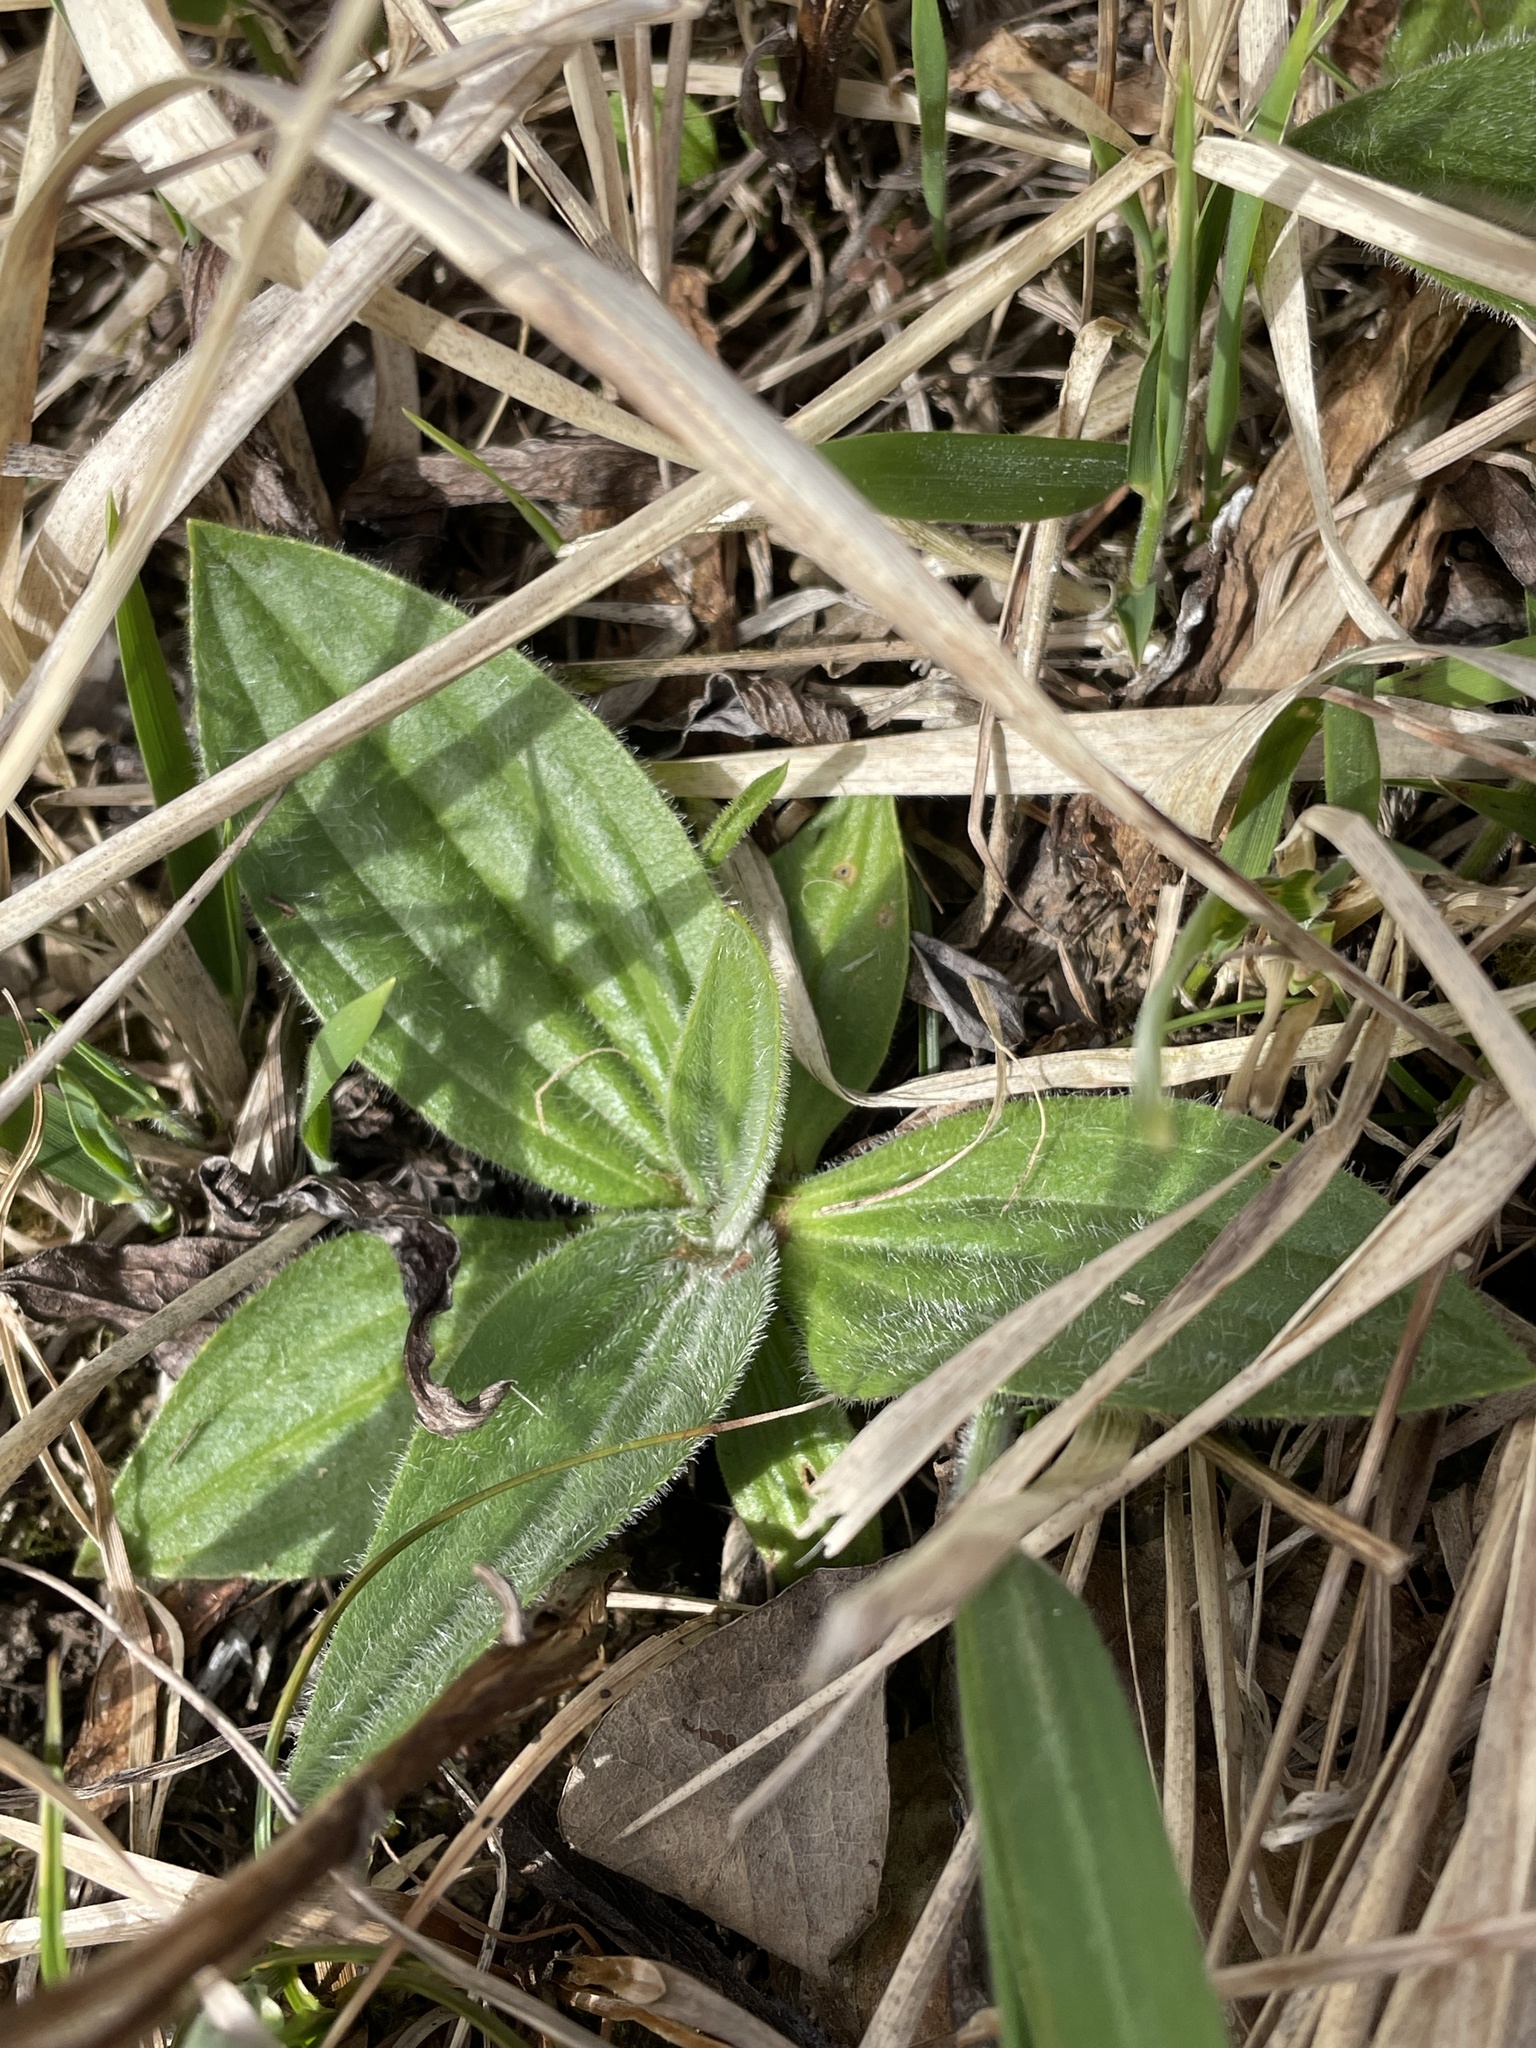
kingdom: Plantae
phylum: Tracheophyta
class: Magnoliopsida
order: Lamiales
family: Plantaginaceae
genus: Plantago
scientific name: Plantago media
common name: Hoary plantain
